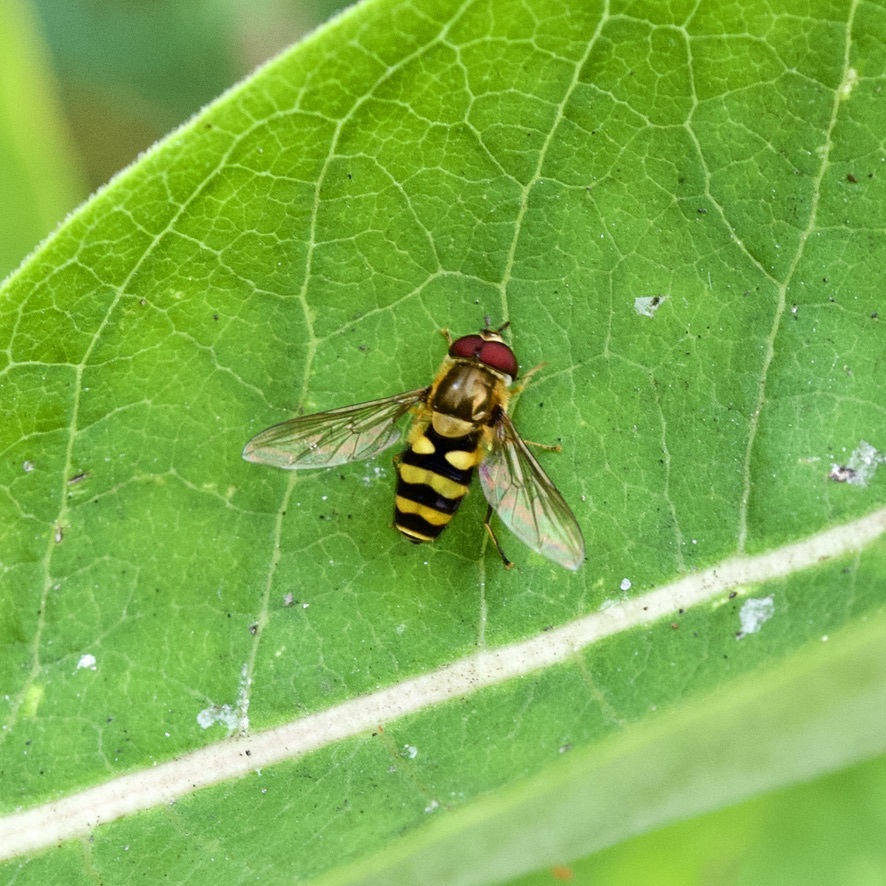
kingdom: Animalia
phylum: Arthropoda
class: Insecta
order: Diptera
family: Syrphidae
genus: Syrphus
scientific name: Syrphus
